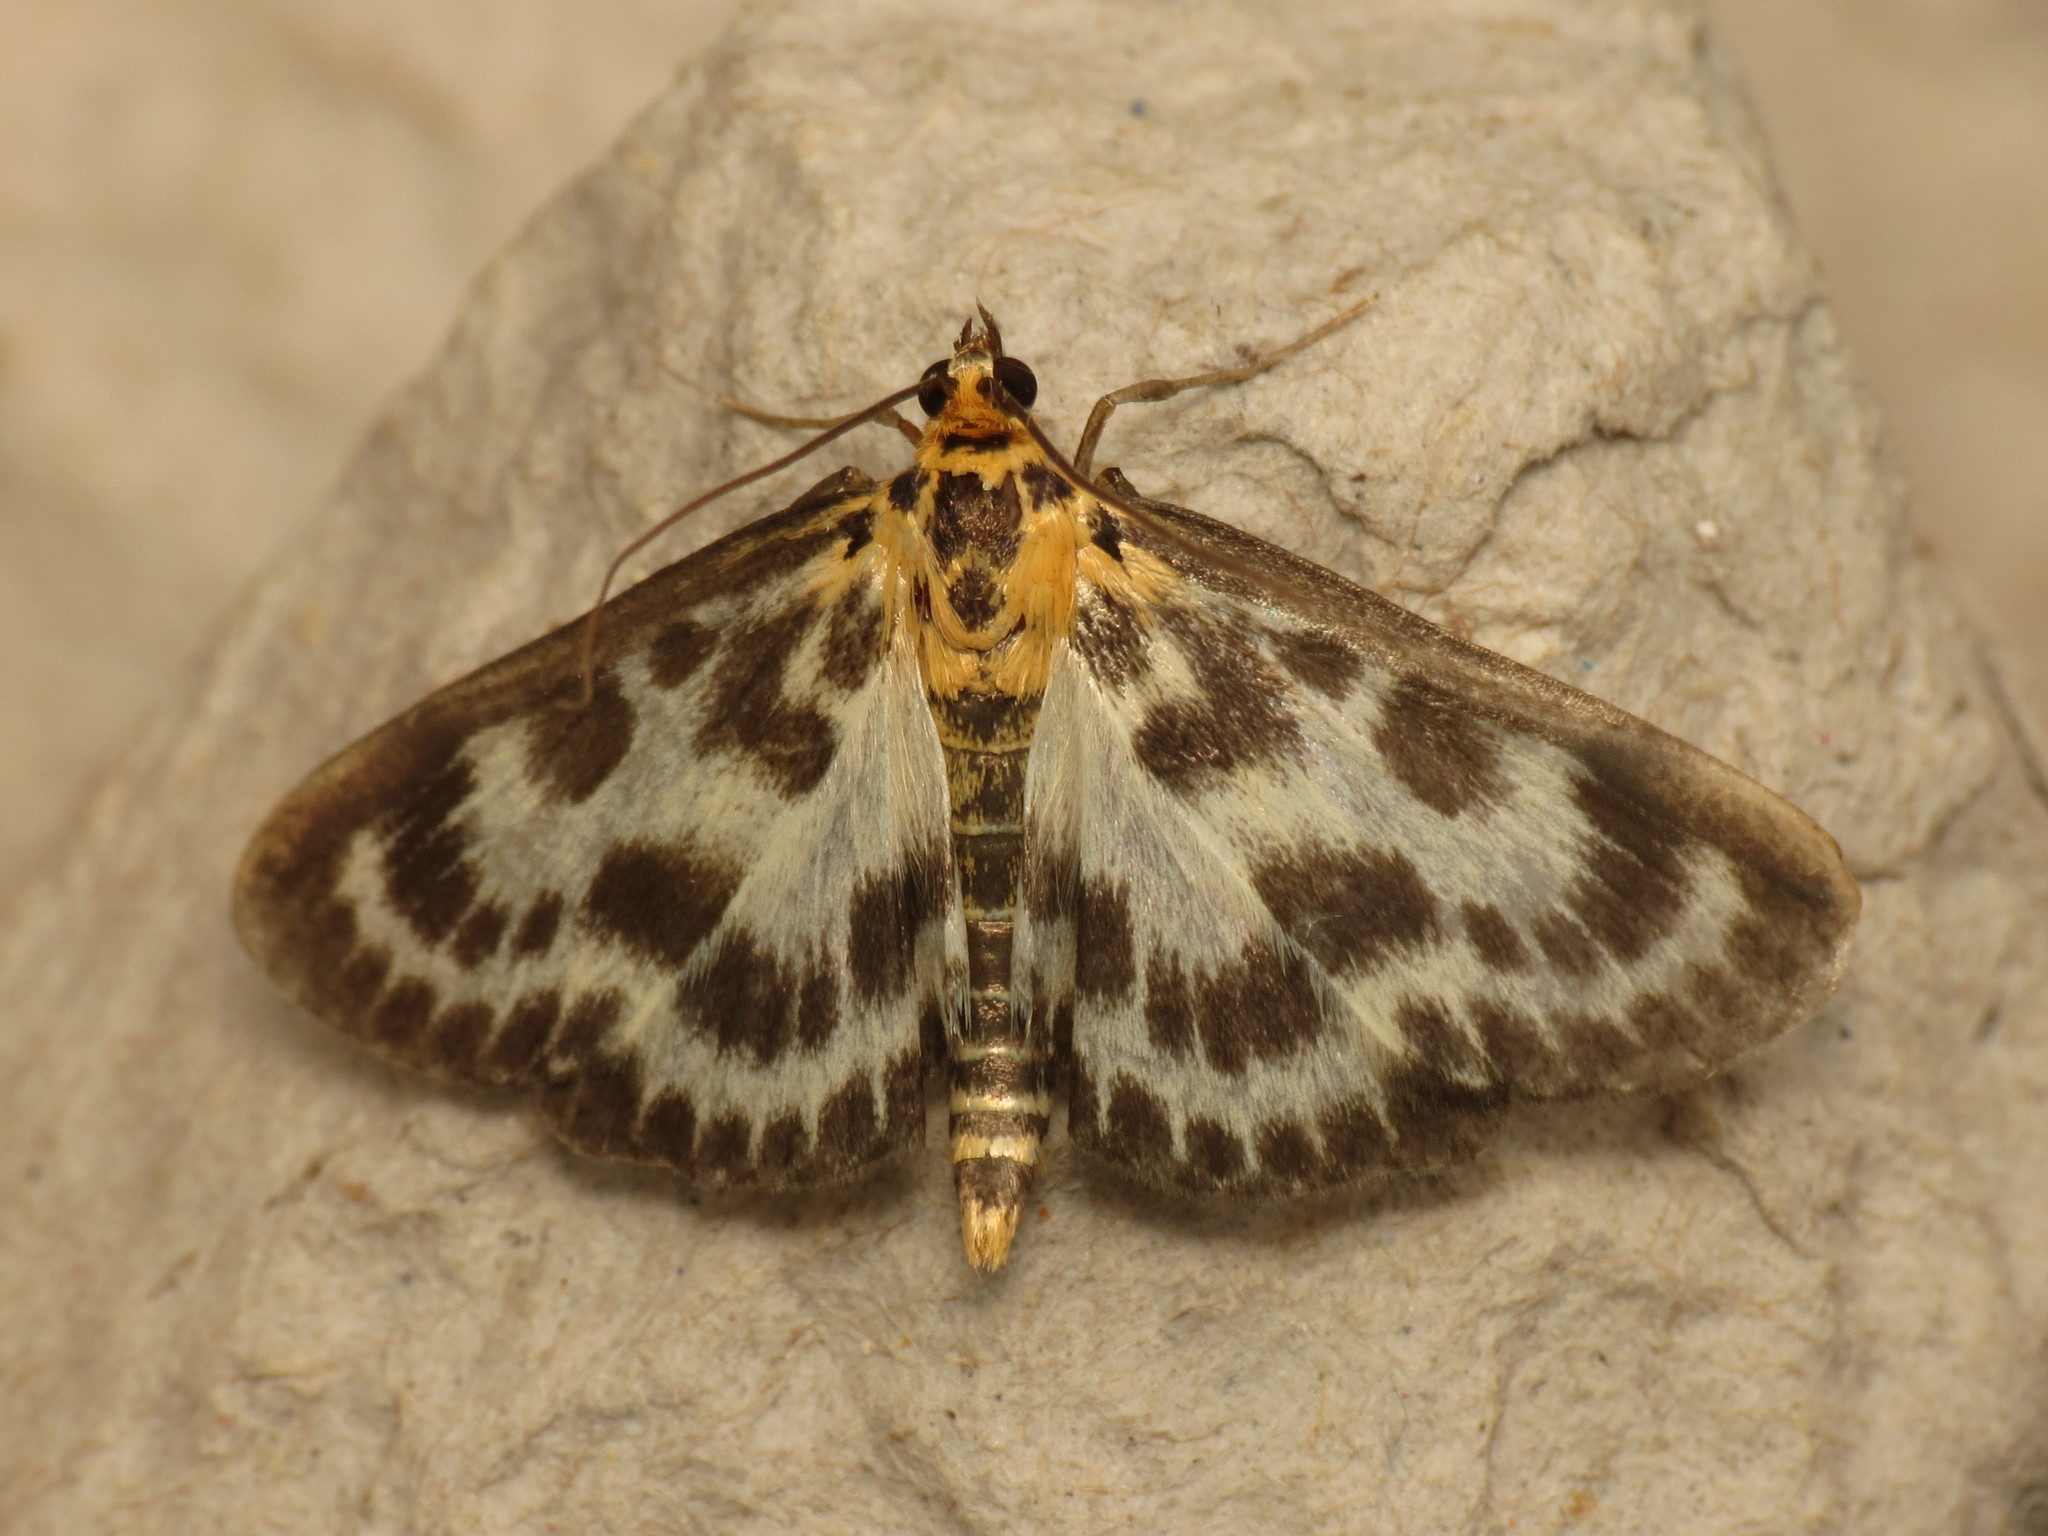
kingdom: Animalia
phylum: Arthropoda
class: Insecta
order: Lepidoptera
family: Crambidae
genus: Anania
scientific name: Anania hortulata
